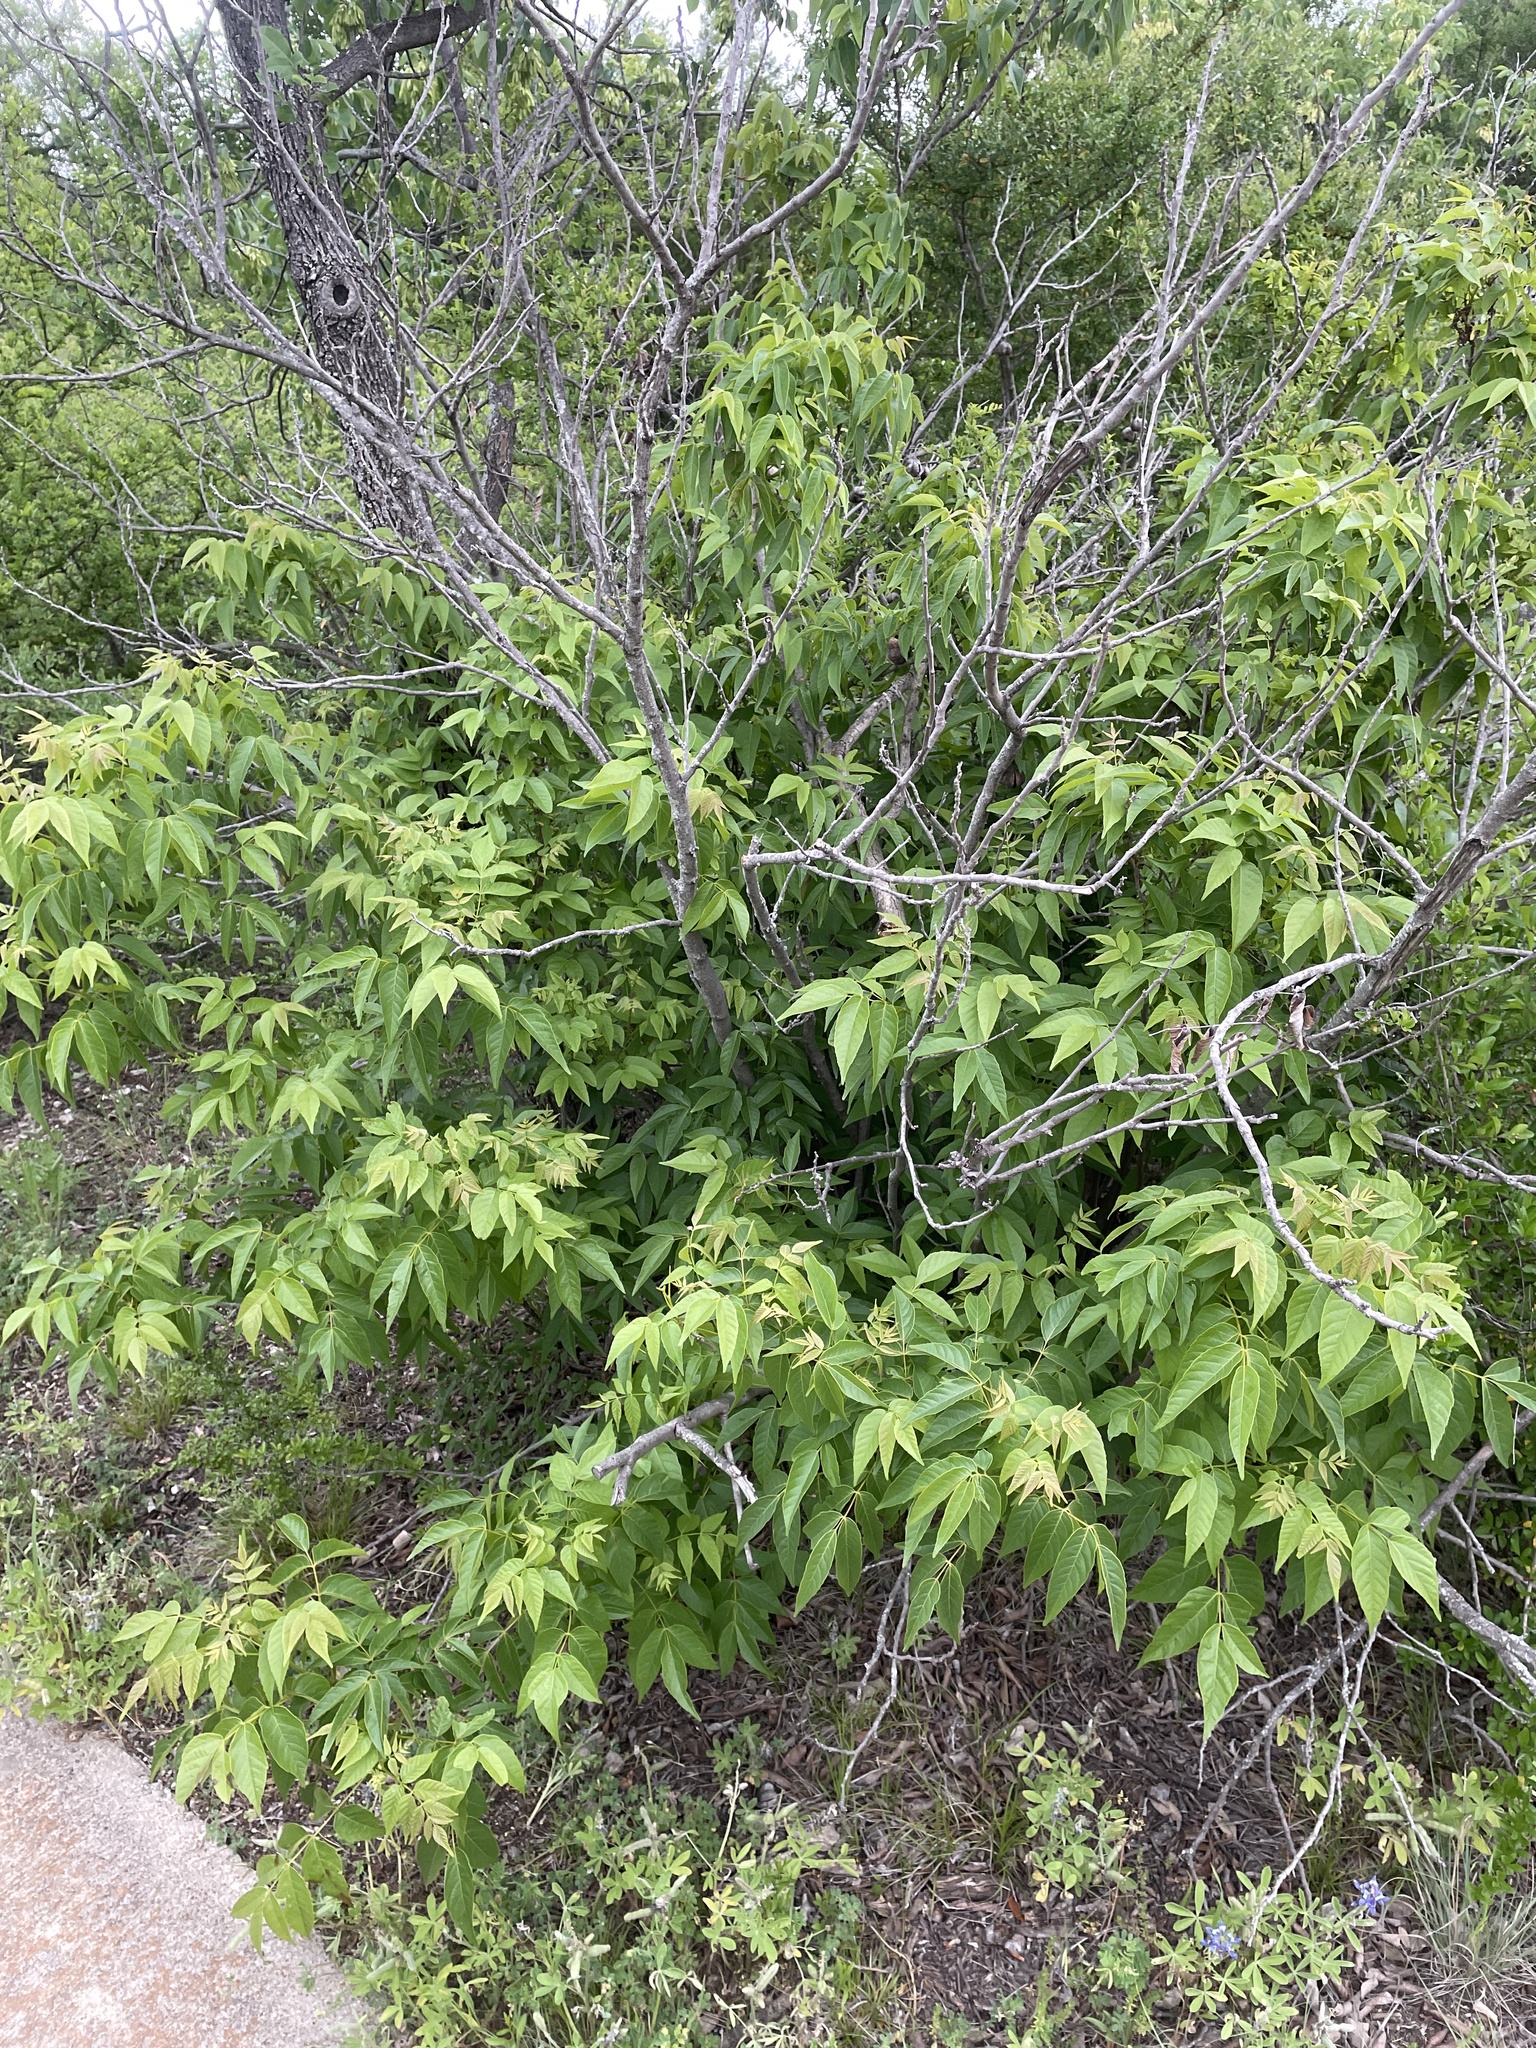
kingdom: Plantae
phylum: Tracheophyta
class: Magnoliopsida
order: Sapindales
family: Sapindaceae
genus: Ungnadia
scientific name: Ungnadia speciosa
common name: Texas-buckeye
